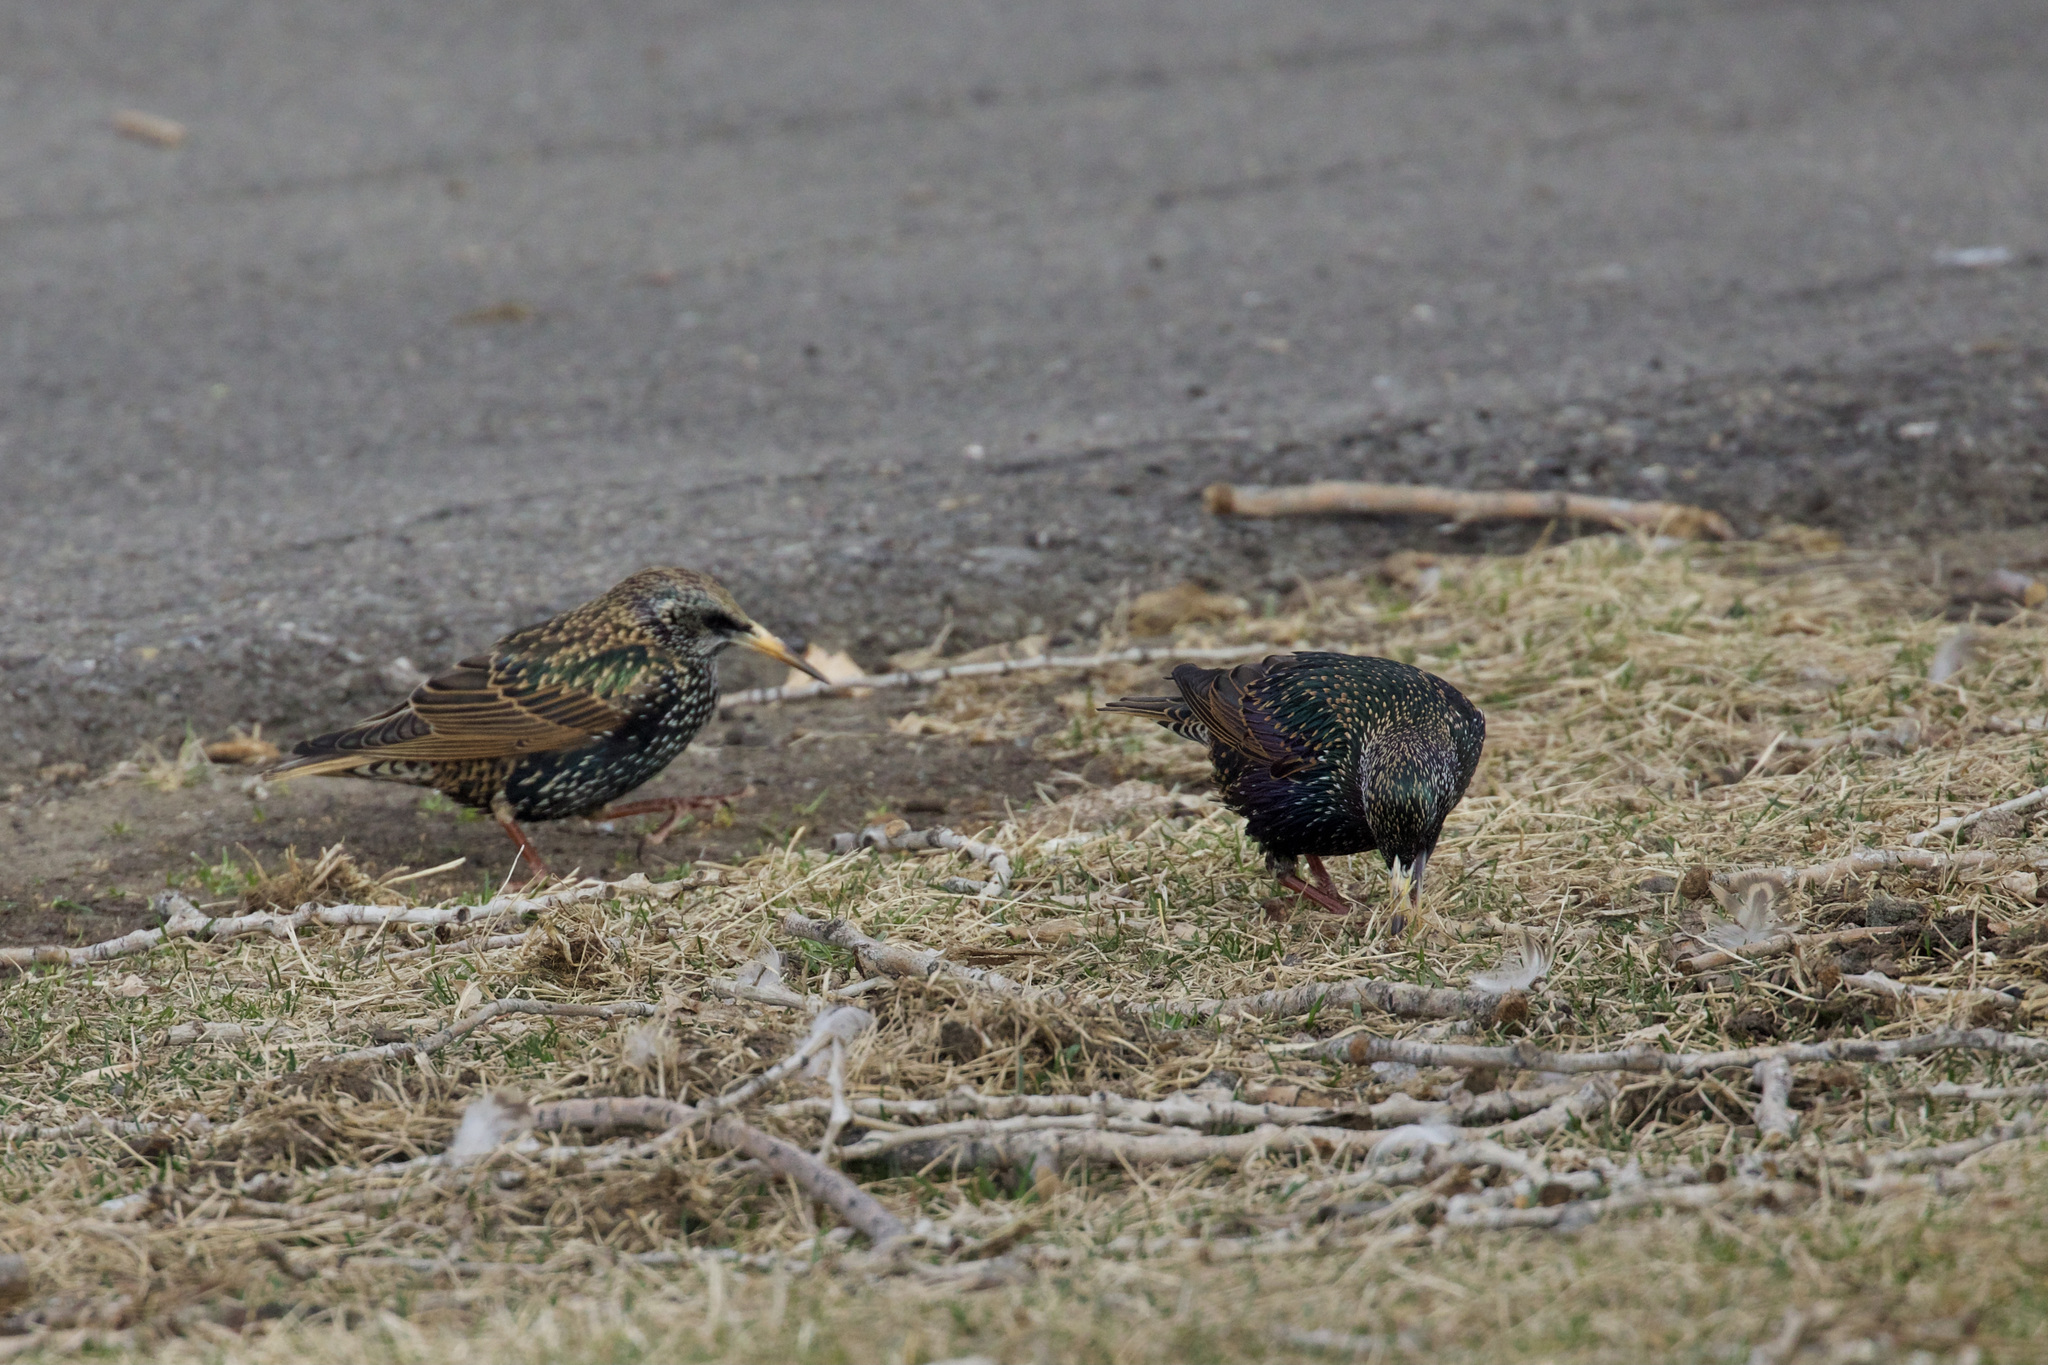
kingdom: Animalia
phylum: Chordata
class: Aves
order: Passeriformes
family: Sturnidae
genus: Sturnus
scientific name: Sturnus vulgaris
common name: Common starling
